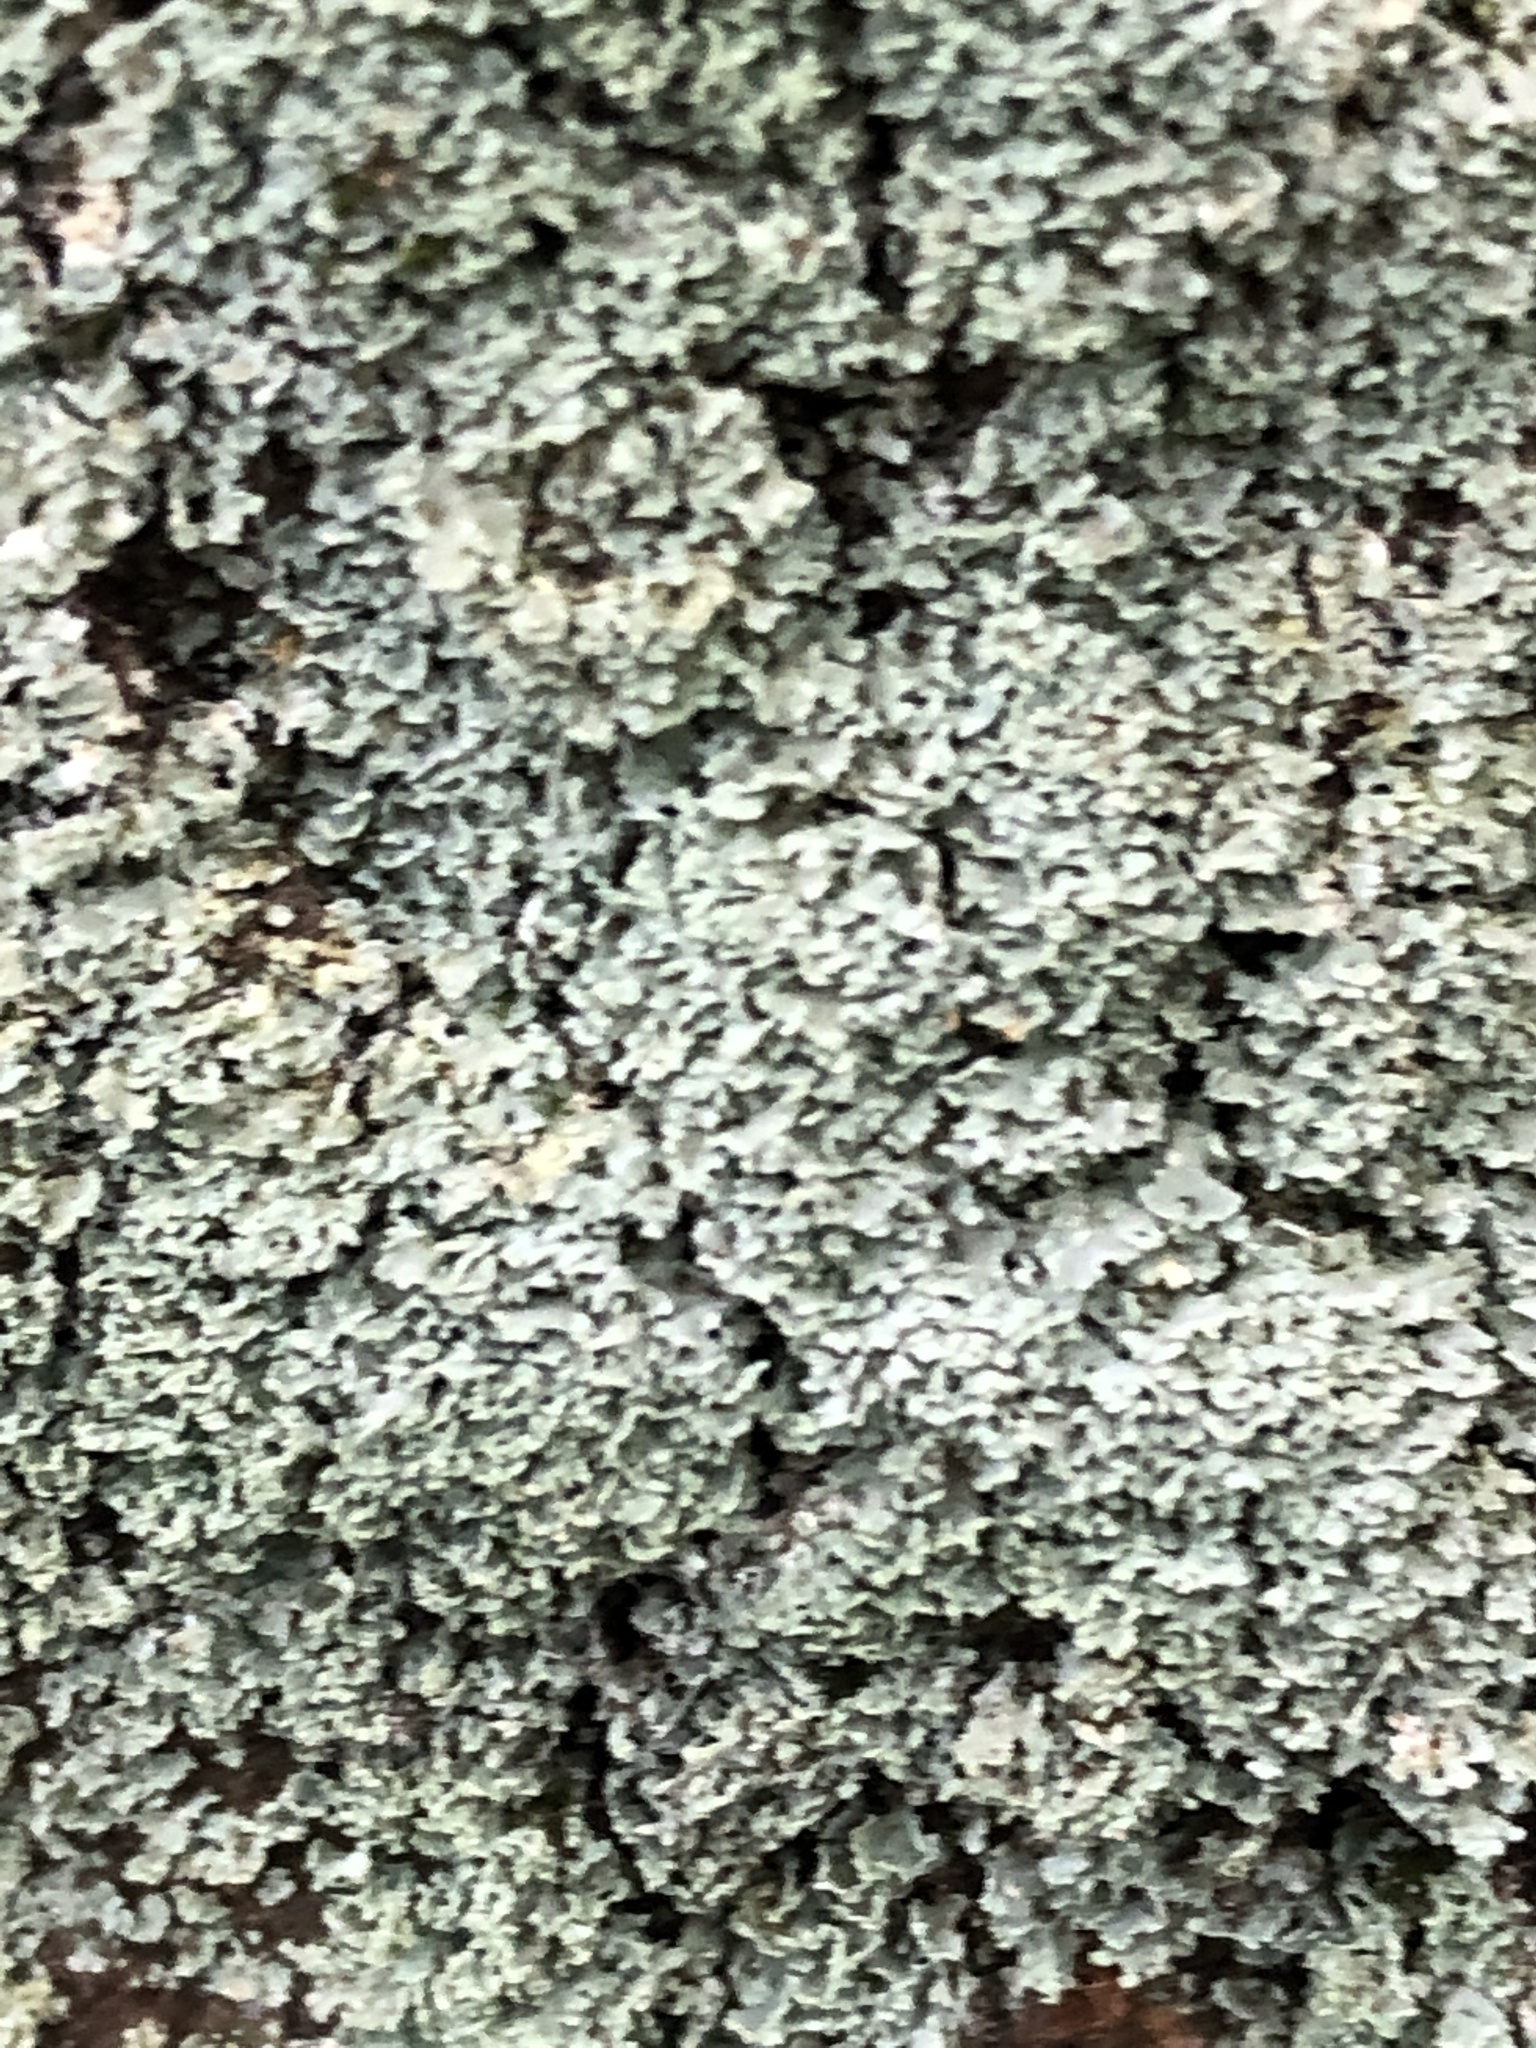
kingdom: Fungi
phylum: Ascomycota
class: Lecanoromycetes
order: Caliciales
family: Physciaceae
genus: Physcia
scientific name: Physcia millegrana
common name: Rosette lichen
